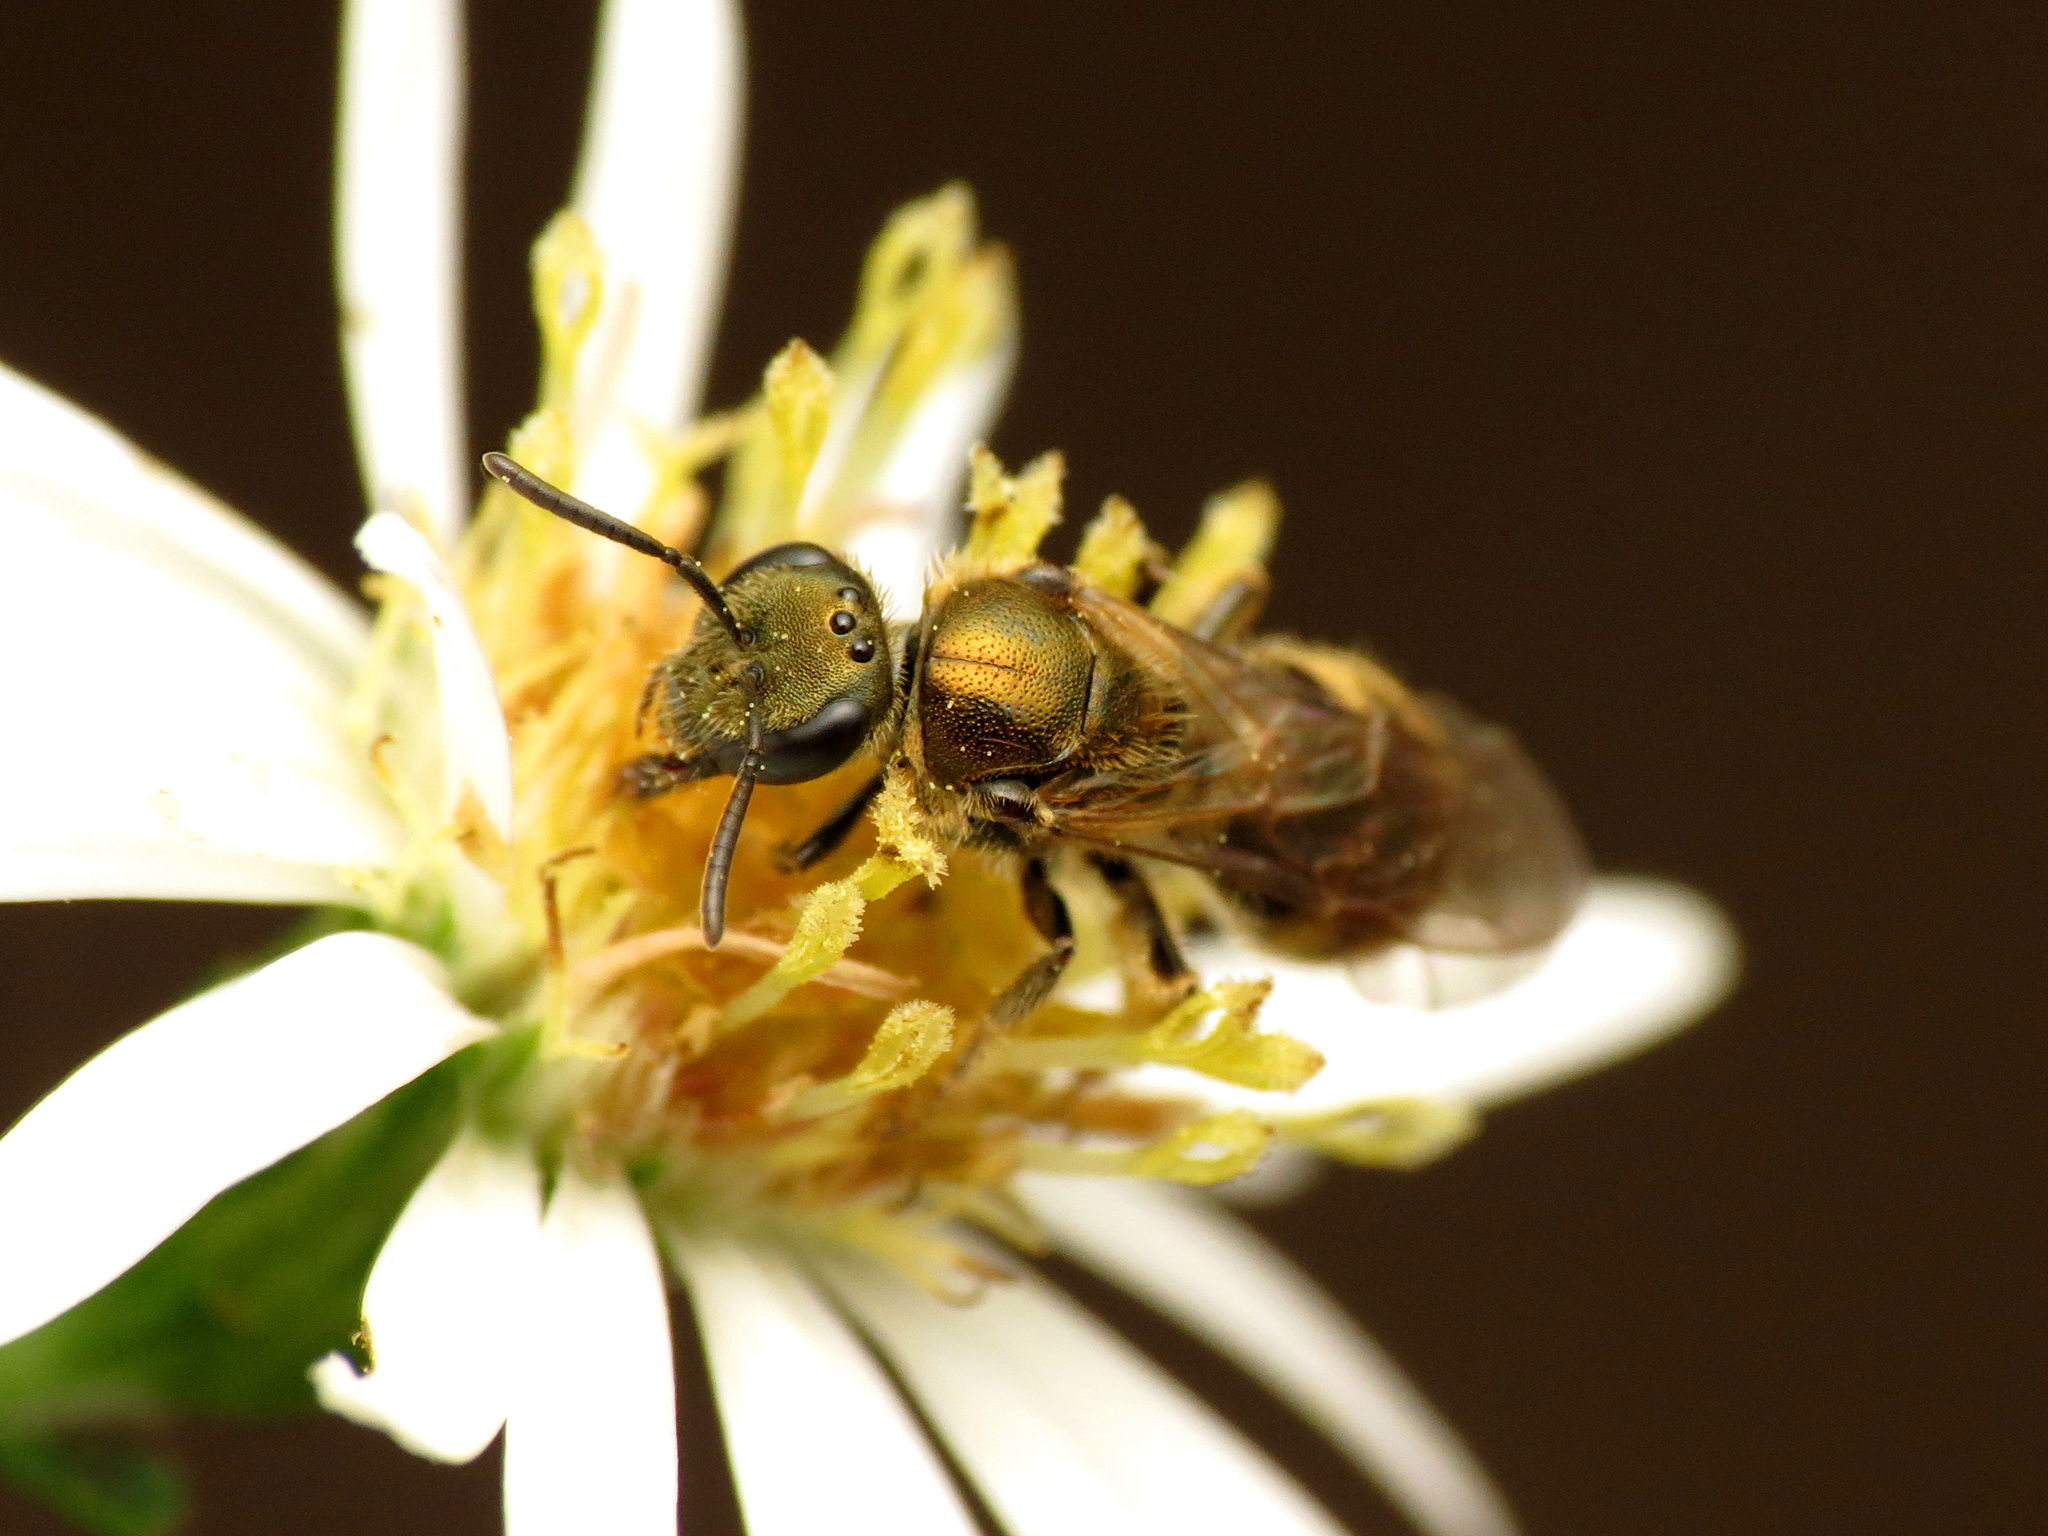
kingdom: Animalia
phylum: Arthropoda
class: Insecta
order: Hymenoptera
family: Halictidae
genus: Lasioglossum
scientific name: Lasioglossum cressonii
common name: Cresson's dialictus
